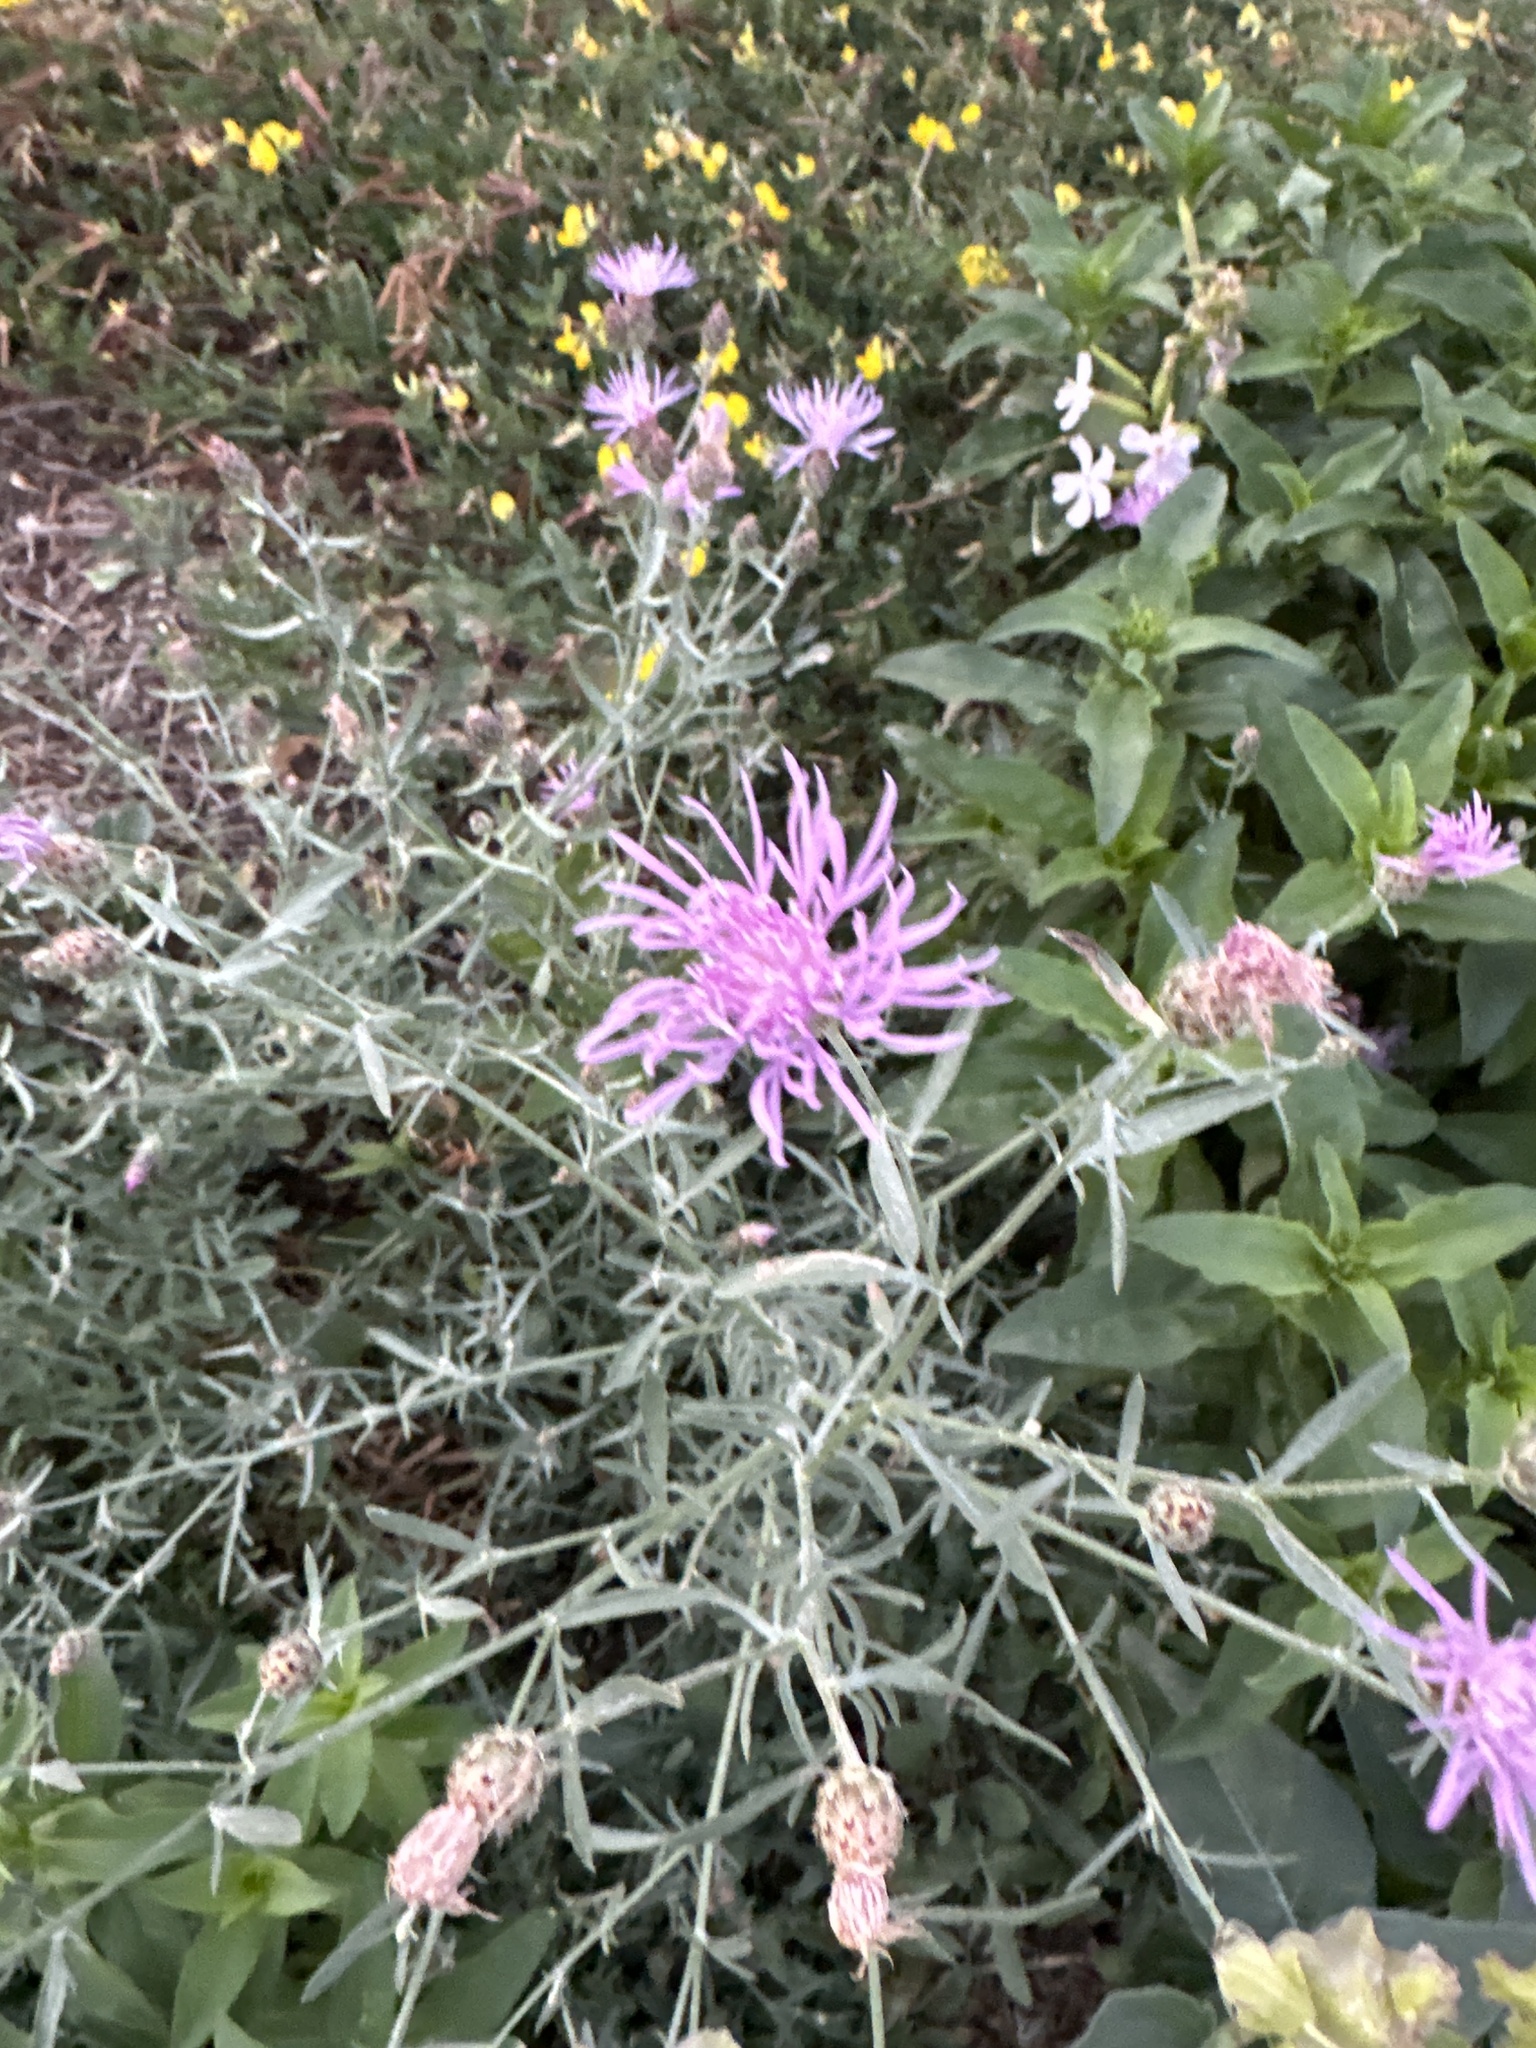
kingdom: Plantae
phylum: Tracheophyta
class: Magnoliopsida
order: Asterales
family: Asteraceae
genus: Centaurea
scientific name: Centaurea stoebe
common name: Spotted knapweed
